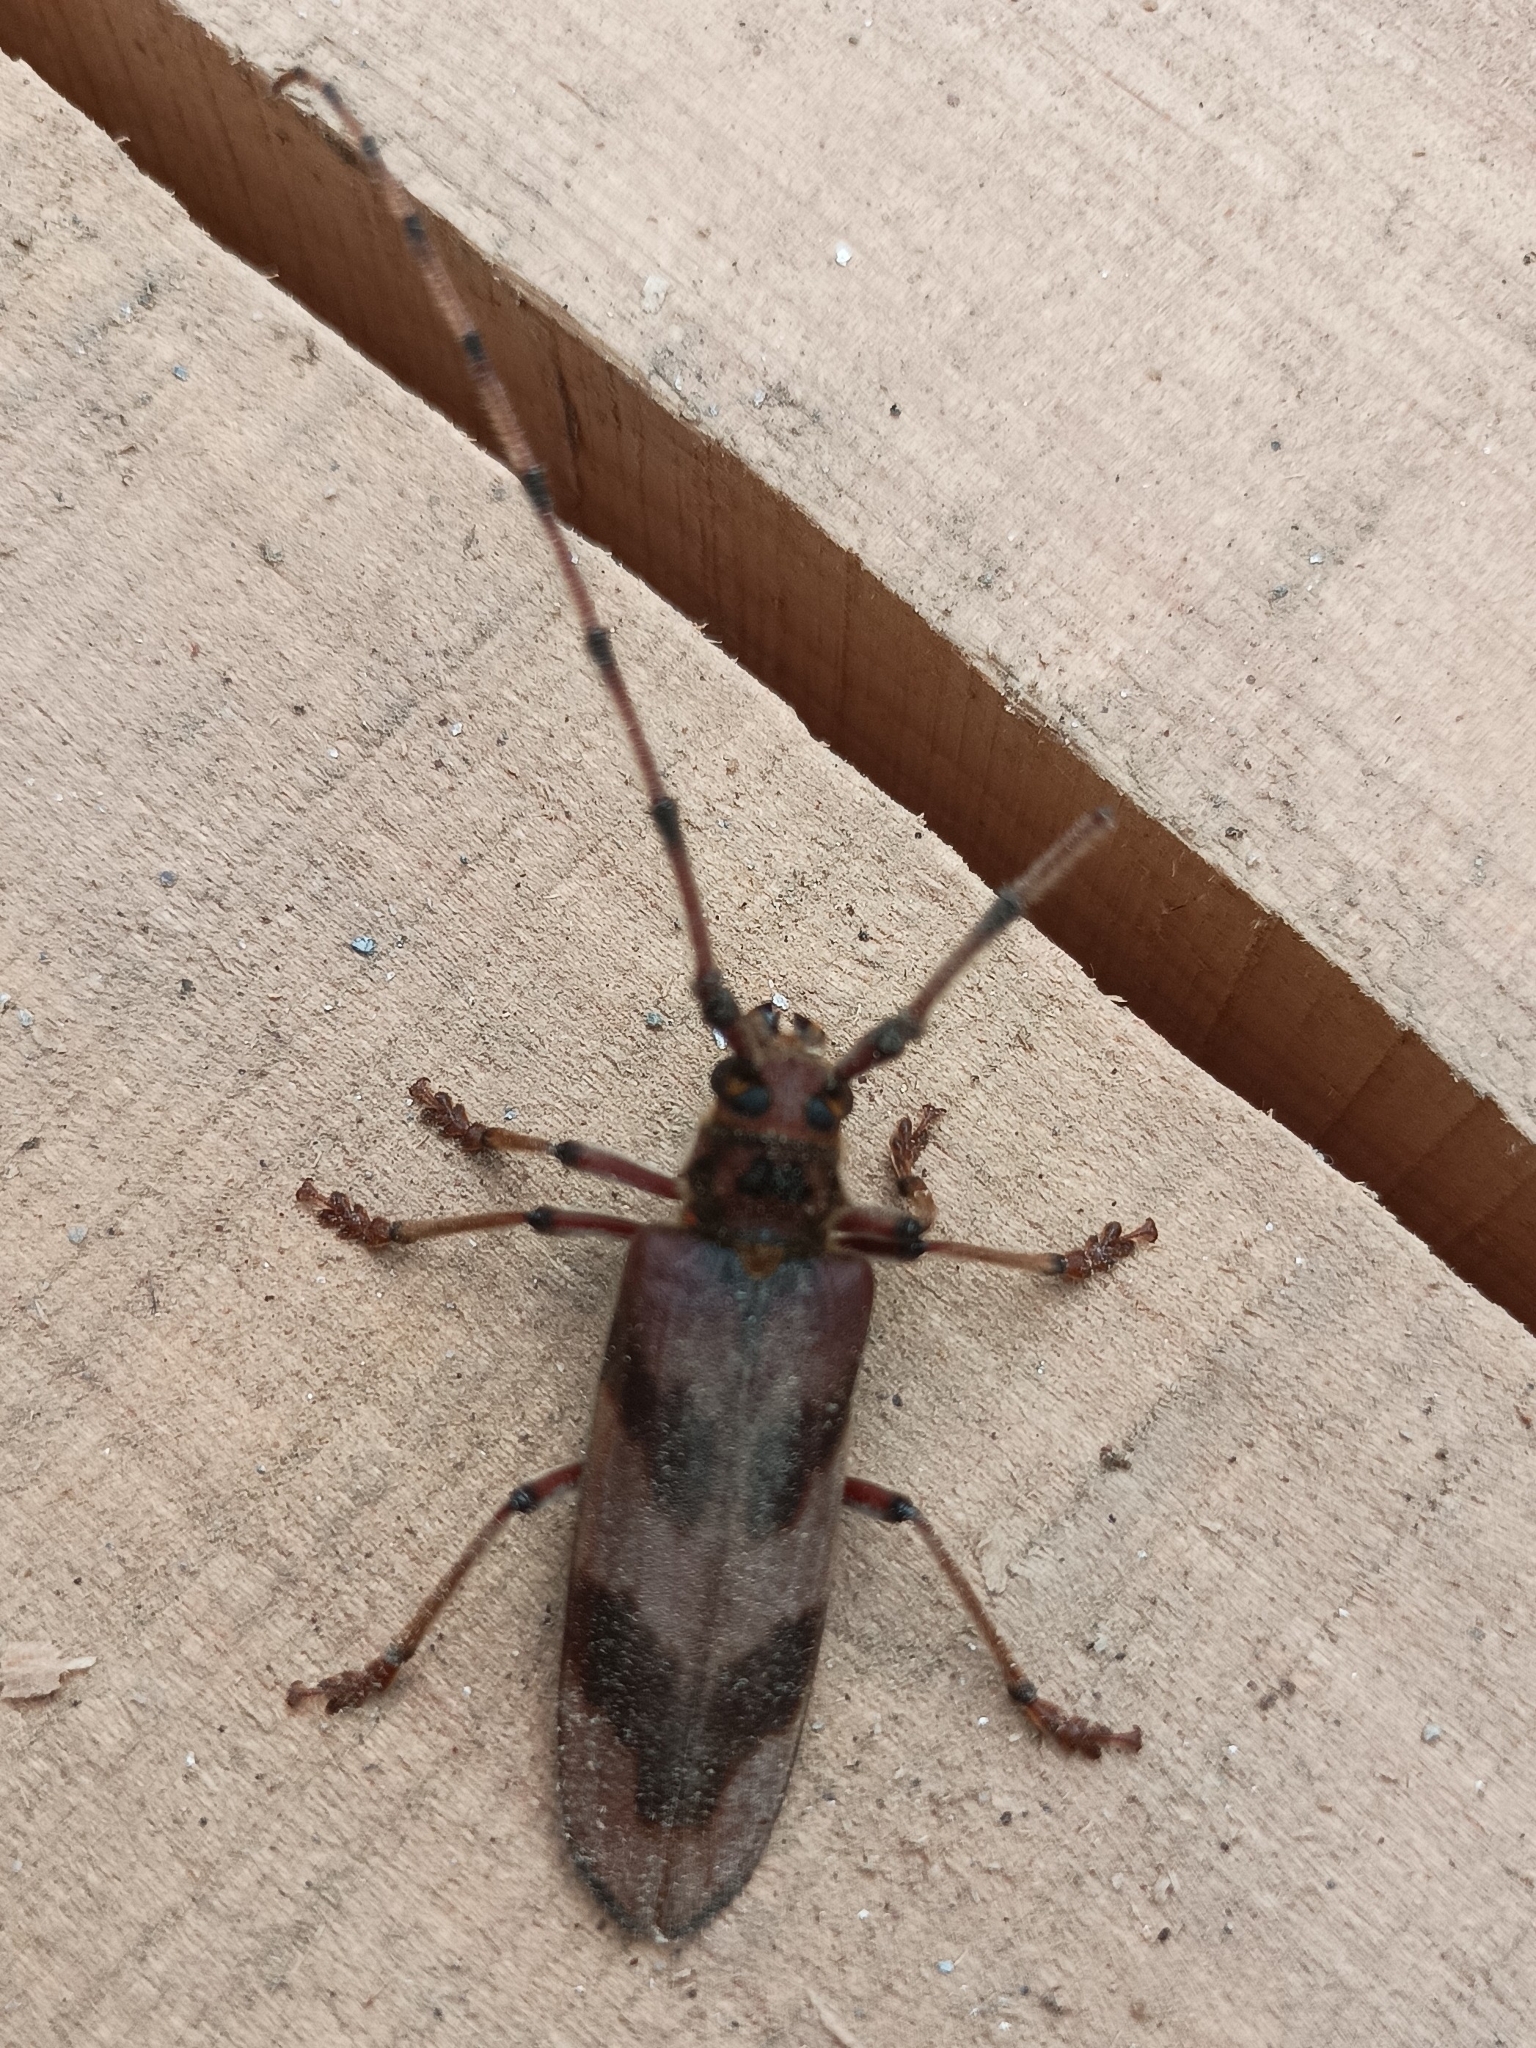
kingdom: Animalia
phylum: Arthropoda
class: Insecta
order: Coleoptera
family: Cerambycidae
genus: Oplatocera
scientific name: Oplatocera oberthuri
